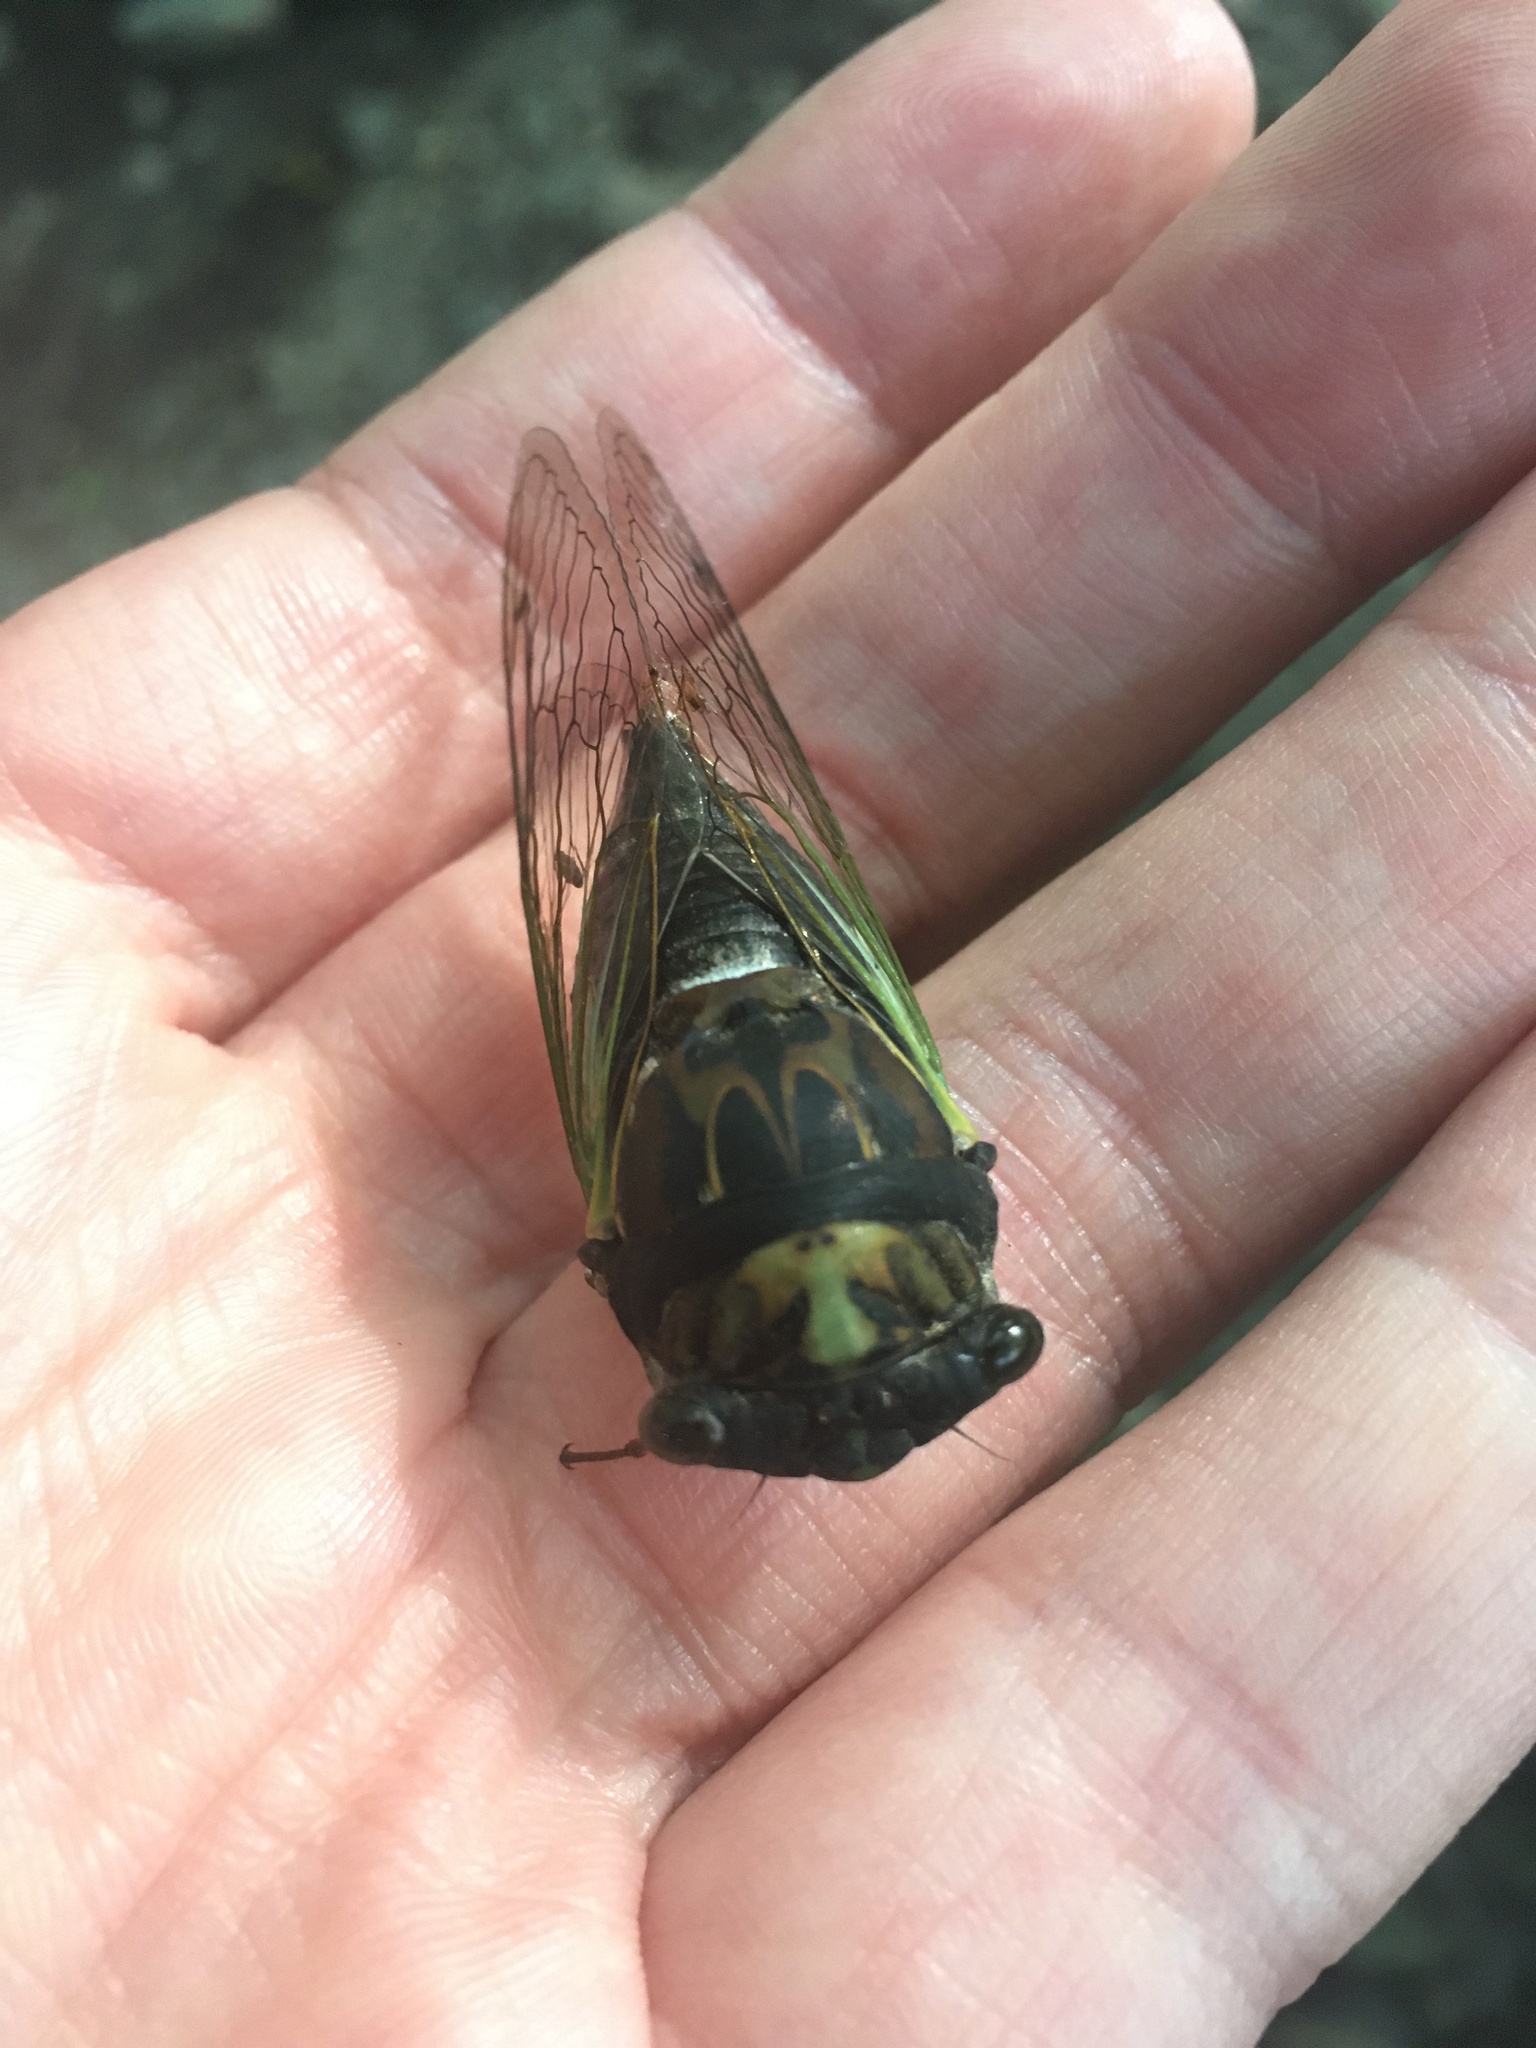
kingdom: Animalia
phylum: Arthropoda
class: Insecta
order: Hemiptera
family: Cicadidae
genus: Neotibicen
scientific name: Neotibicen lyricen
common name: Lyric cicada
